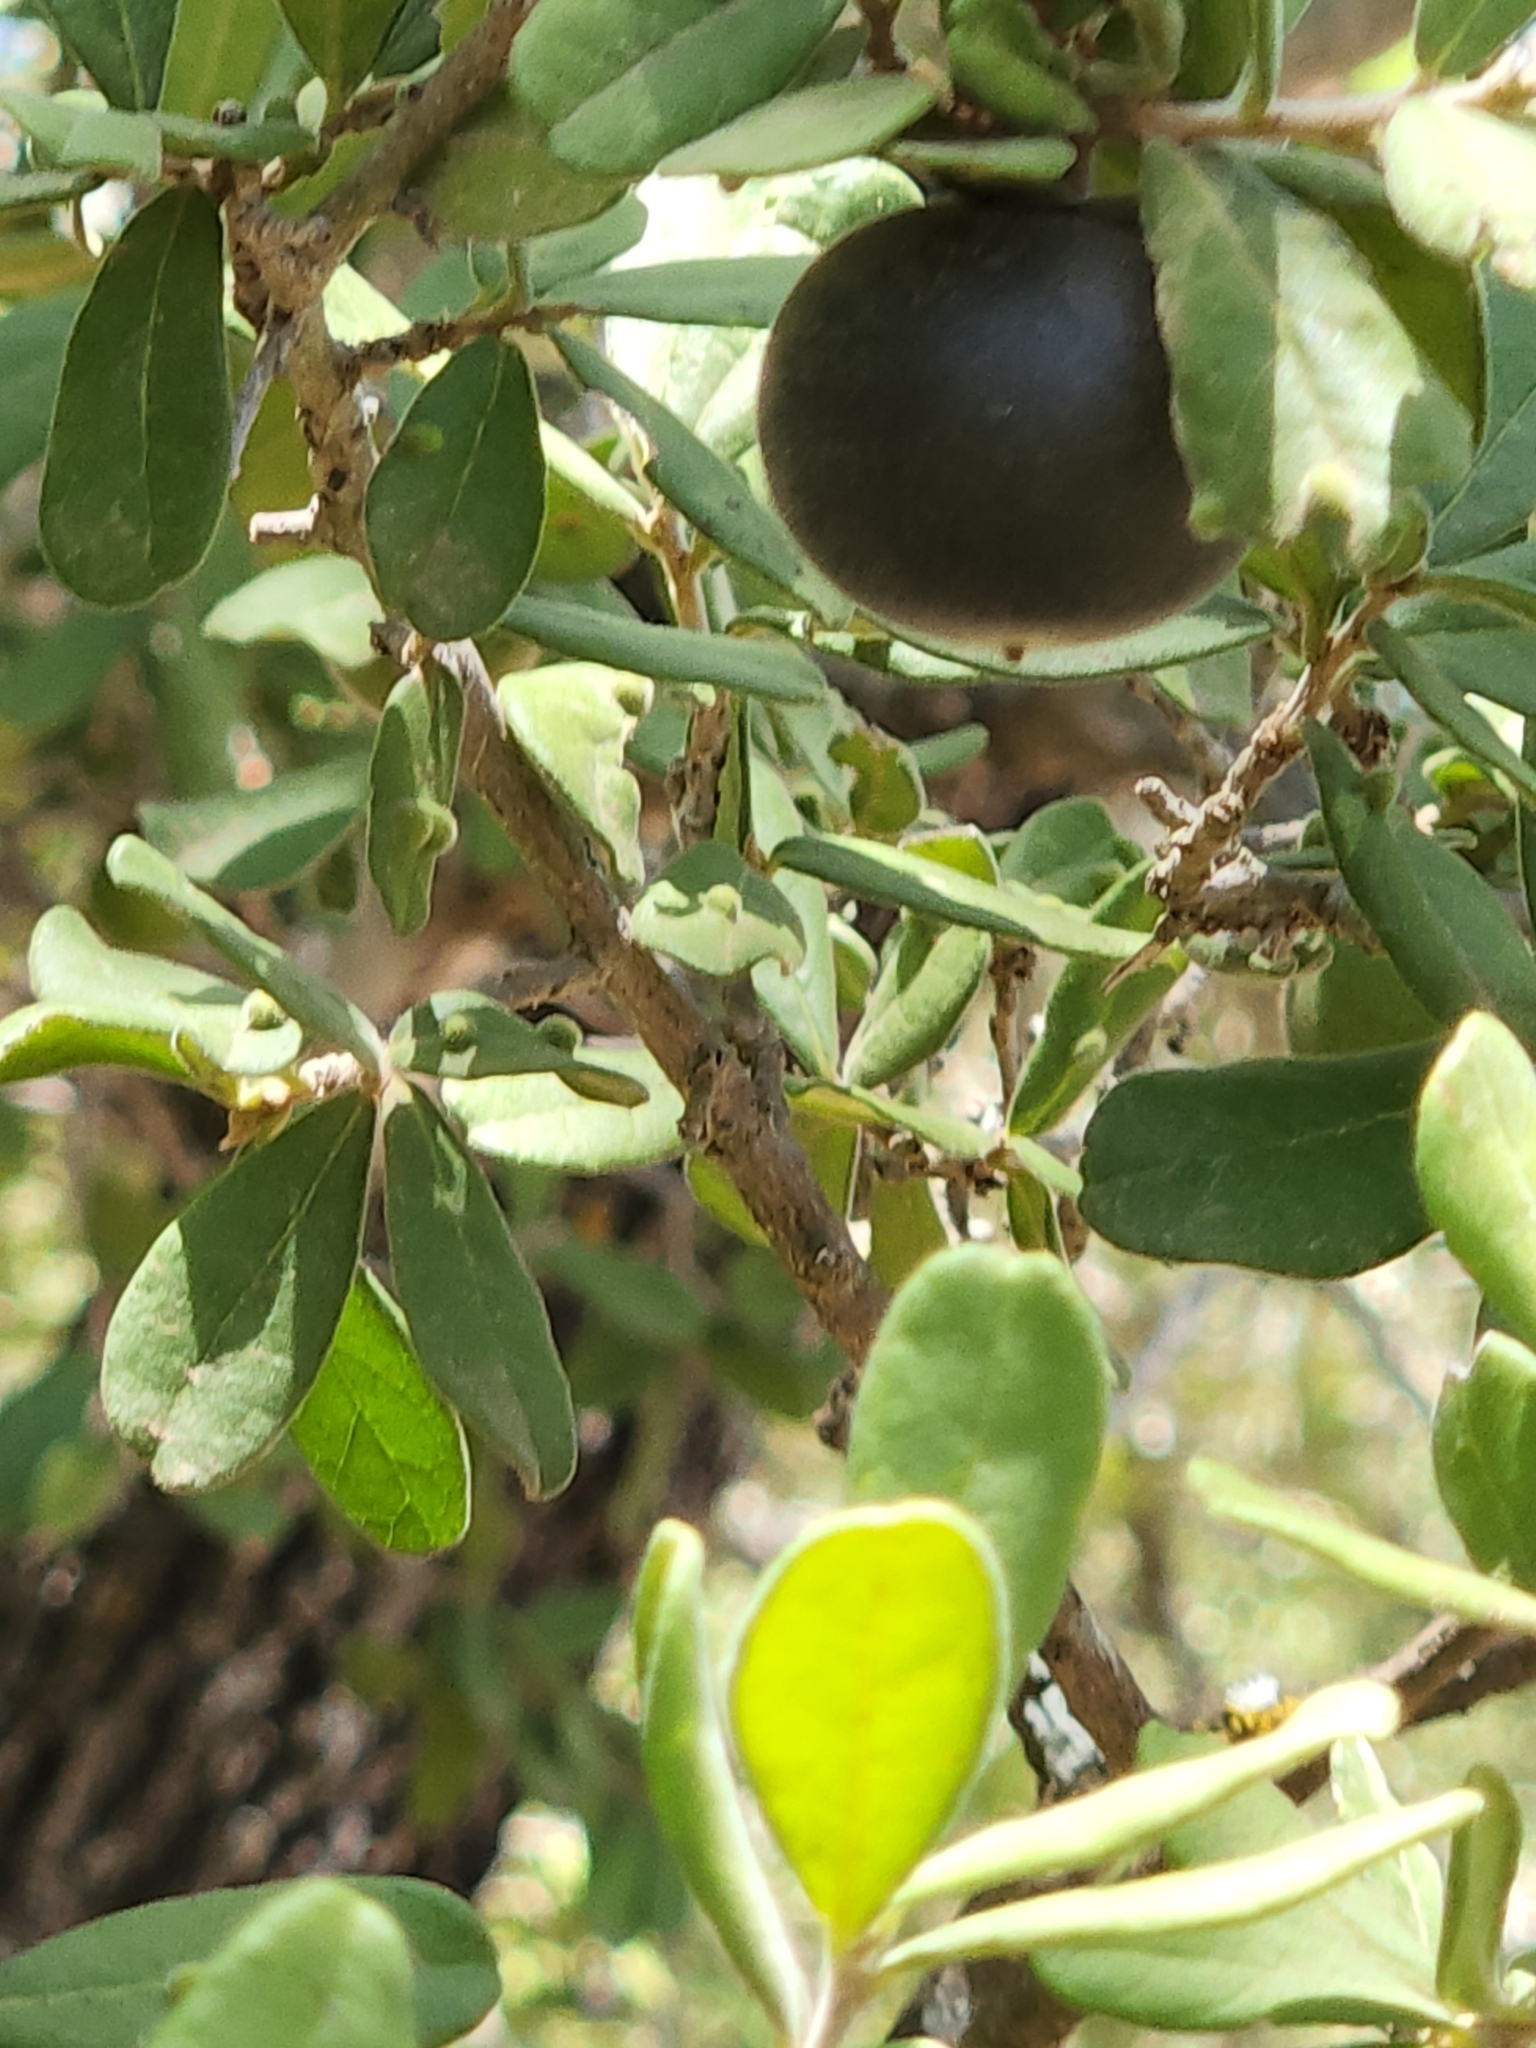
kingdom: Plantae
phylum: Tracheophyta
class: Magnoliopsida
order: Ericales
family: Ebenaceae
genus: Diospyros
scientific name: Diospyros texana
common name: Texas persimmon
